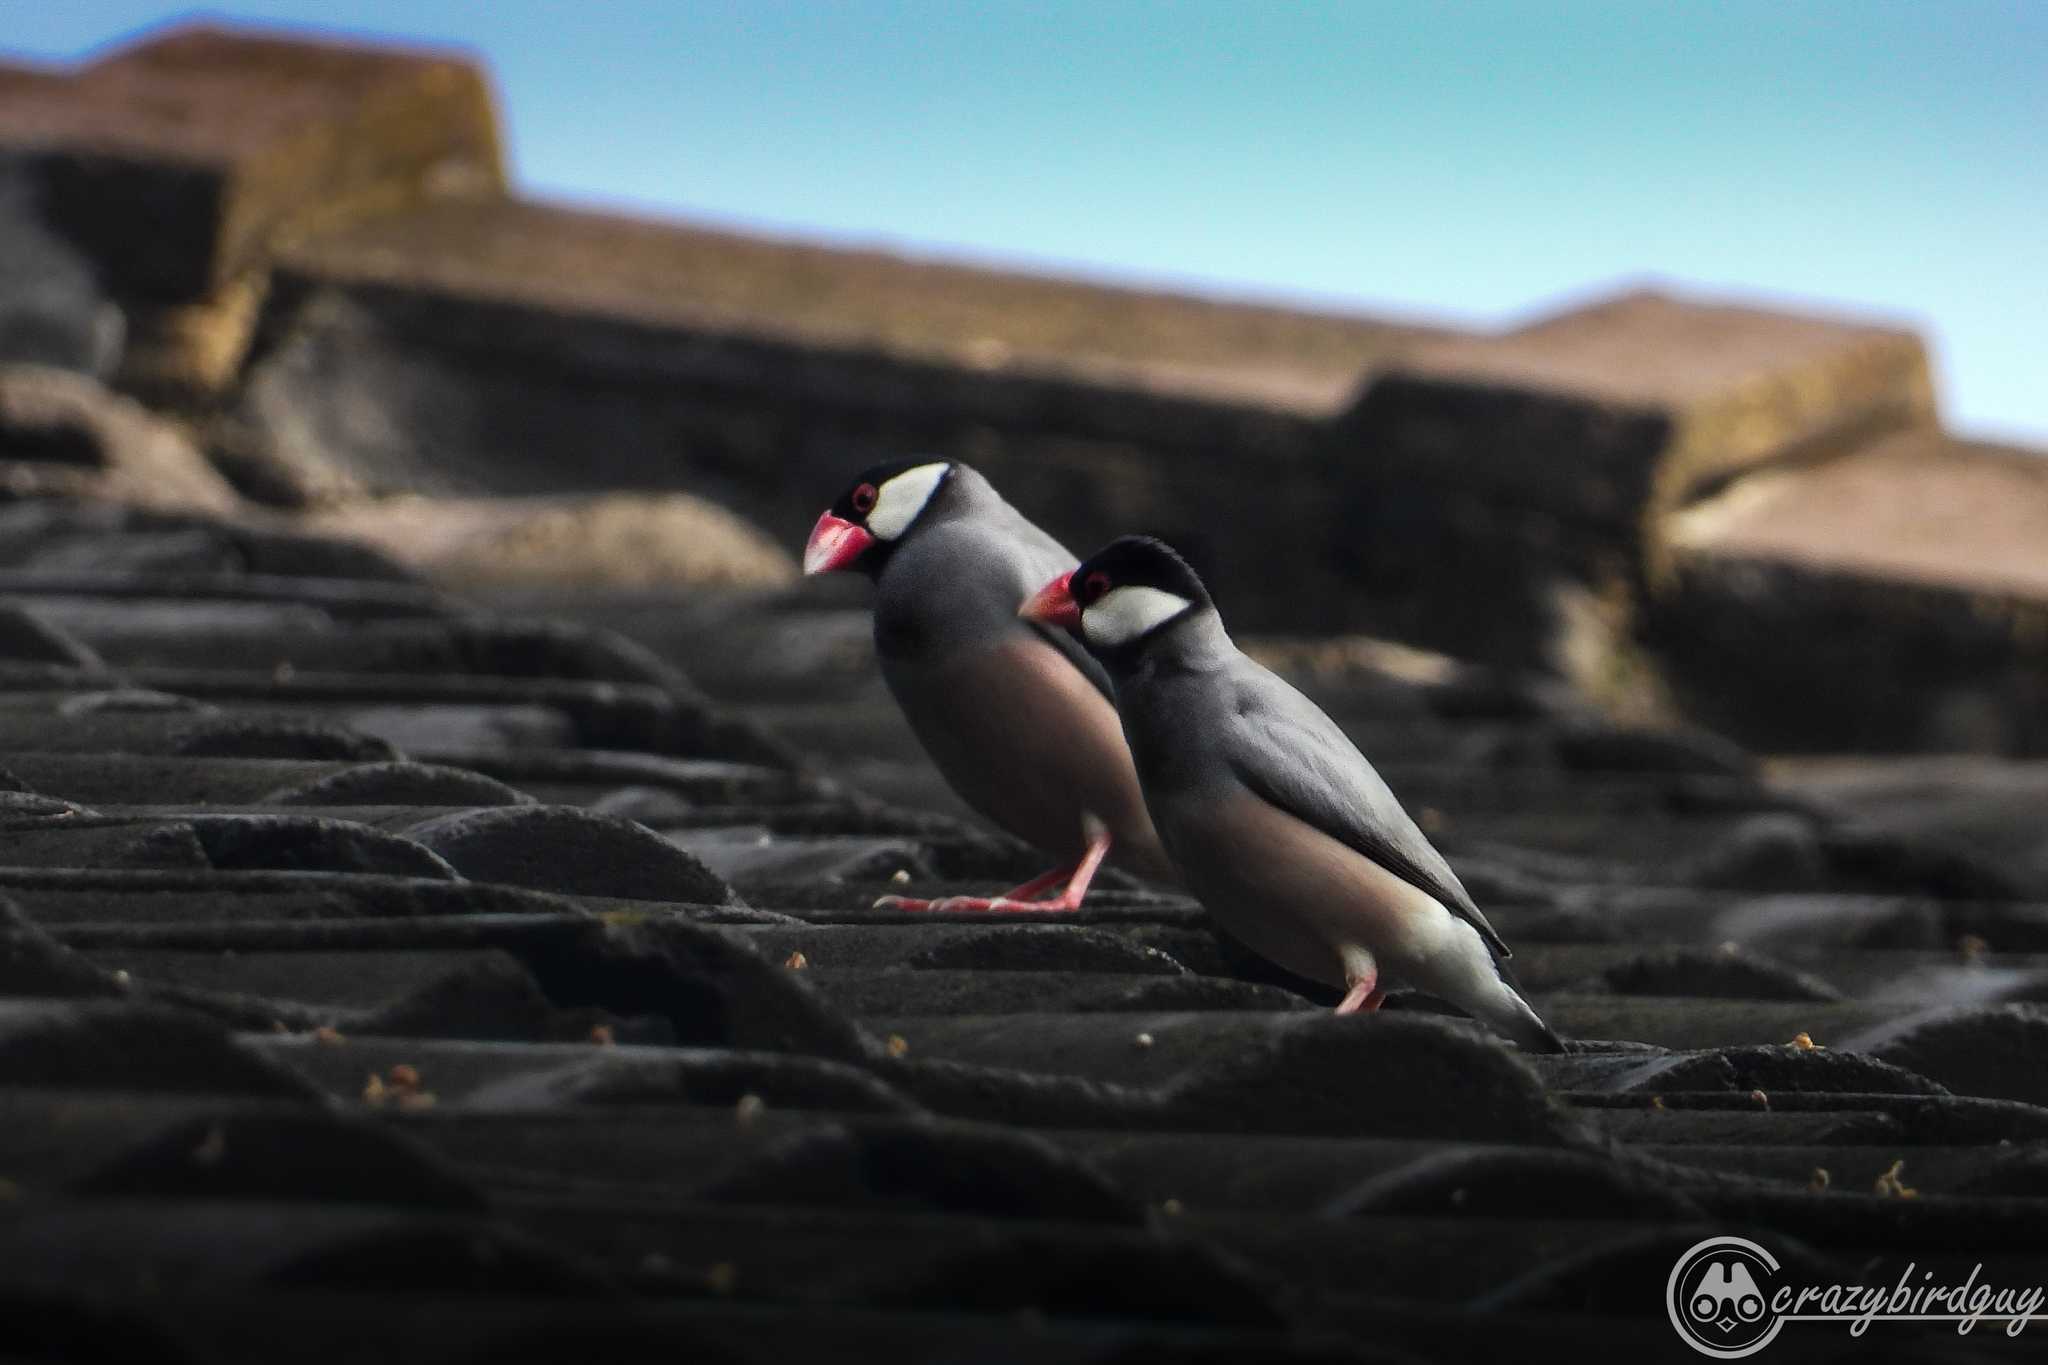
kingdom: Animalia
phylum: Chordata
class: Aves
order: Passeriformes
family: Estrildidae
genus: Lonchura
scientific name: Lonchura oryzivora
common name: Java sparrow
